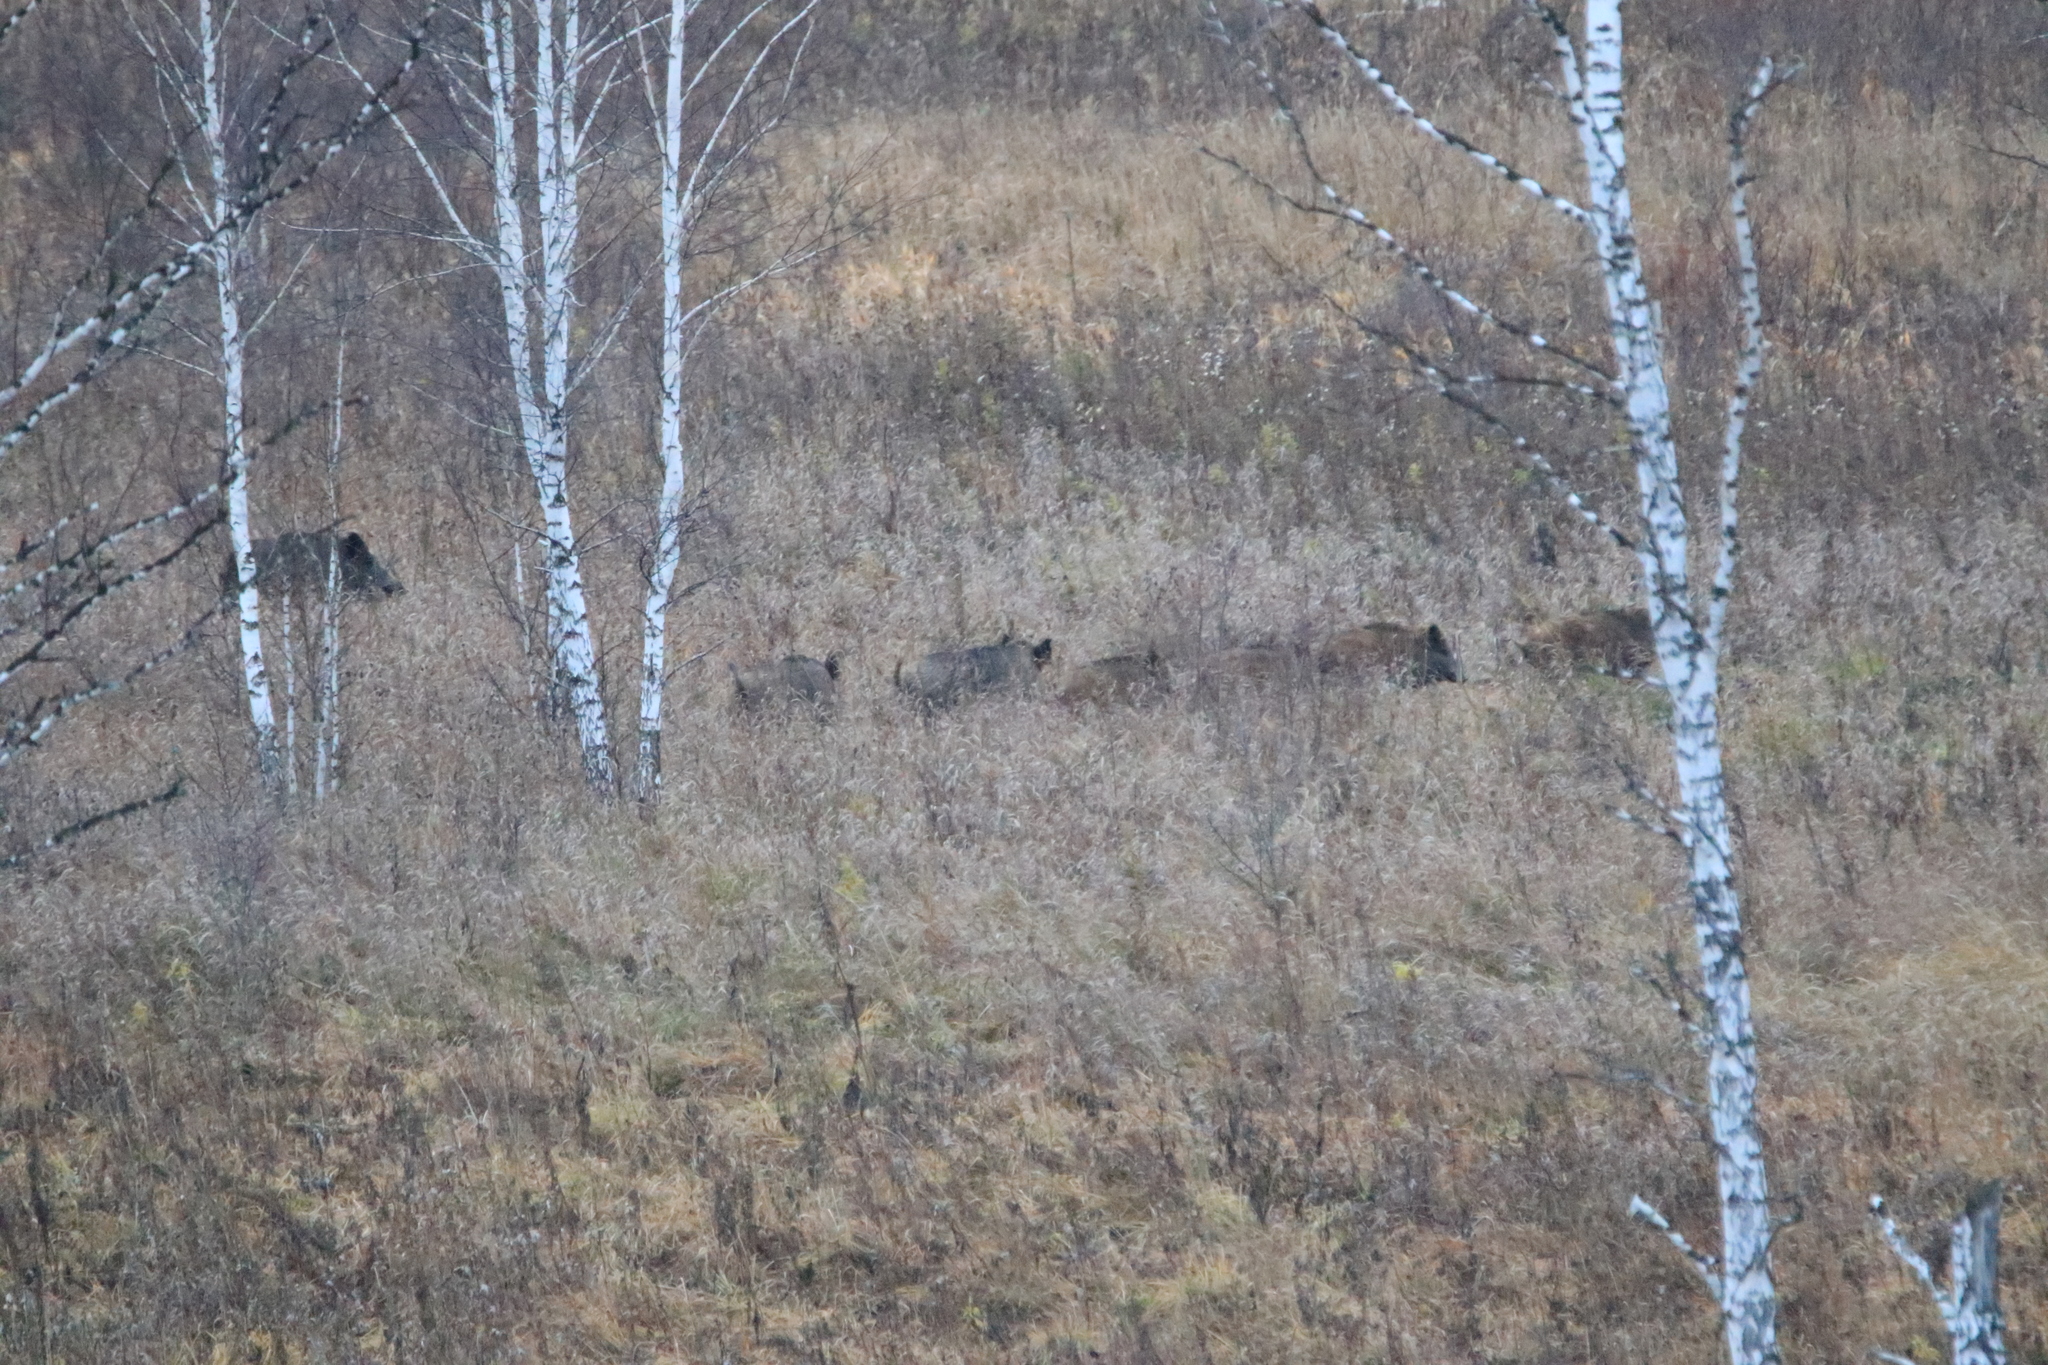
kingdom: Animalia
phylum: Chordata
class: Mammalia
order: Artiodactyla
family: Suidae
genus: Sus
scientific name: Sus scrofa
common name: Wild boar
